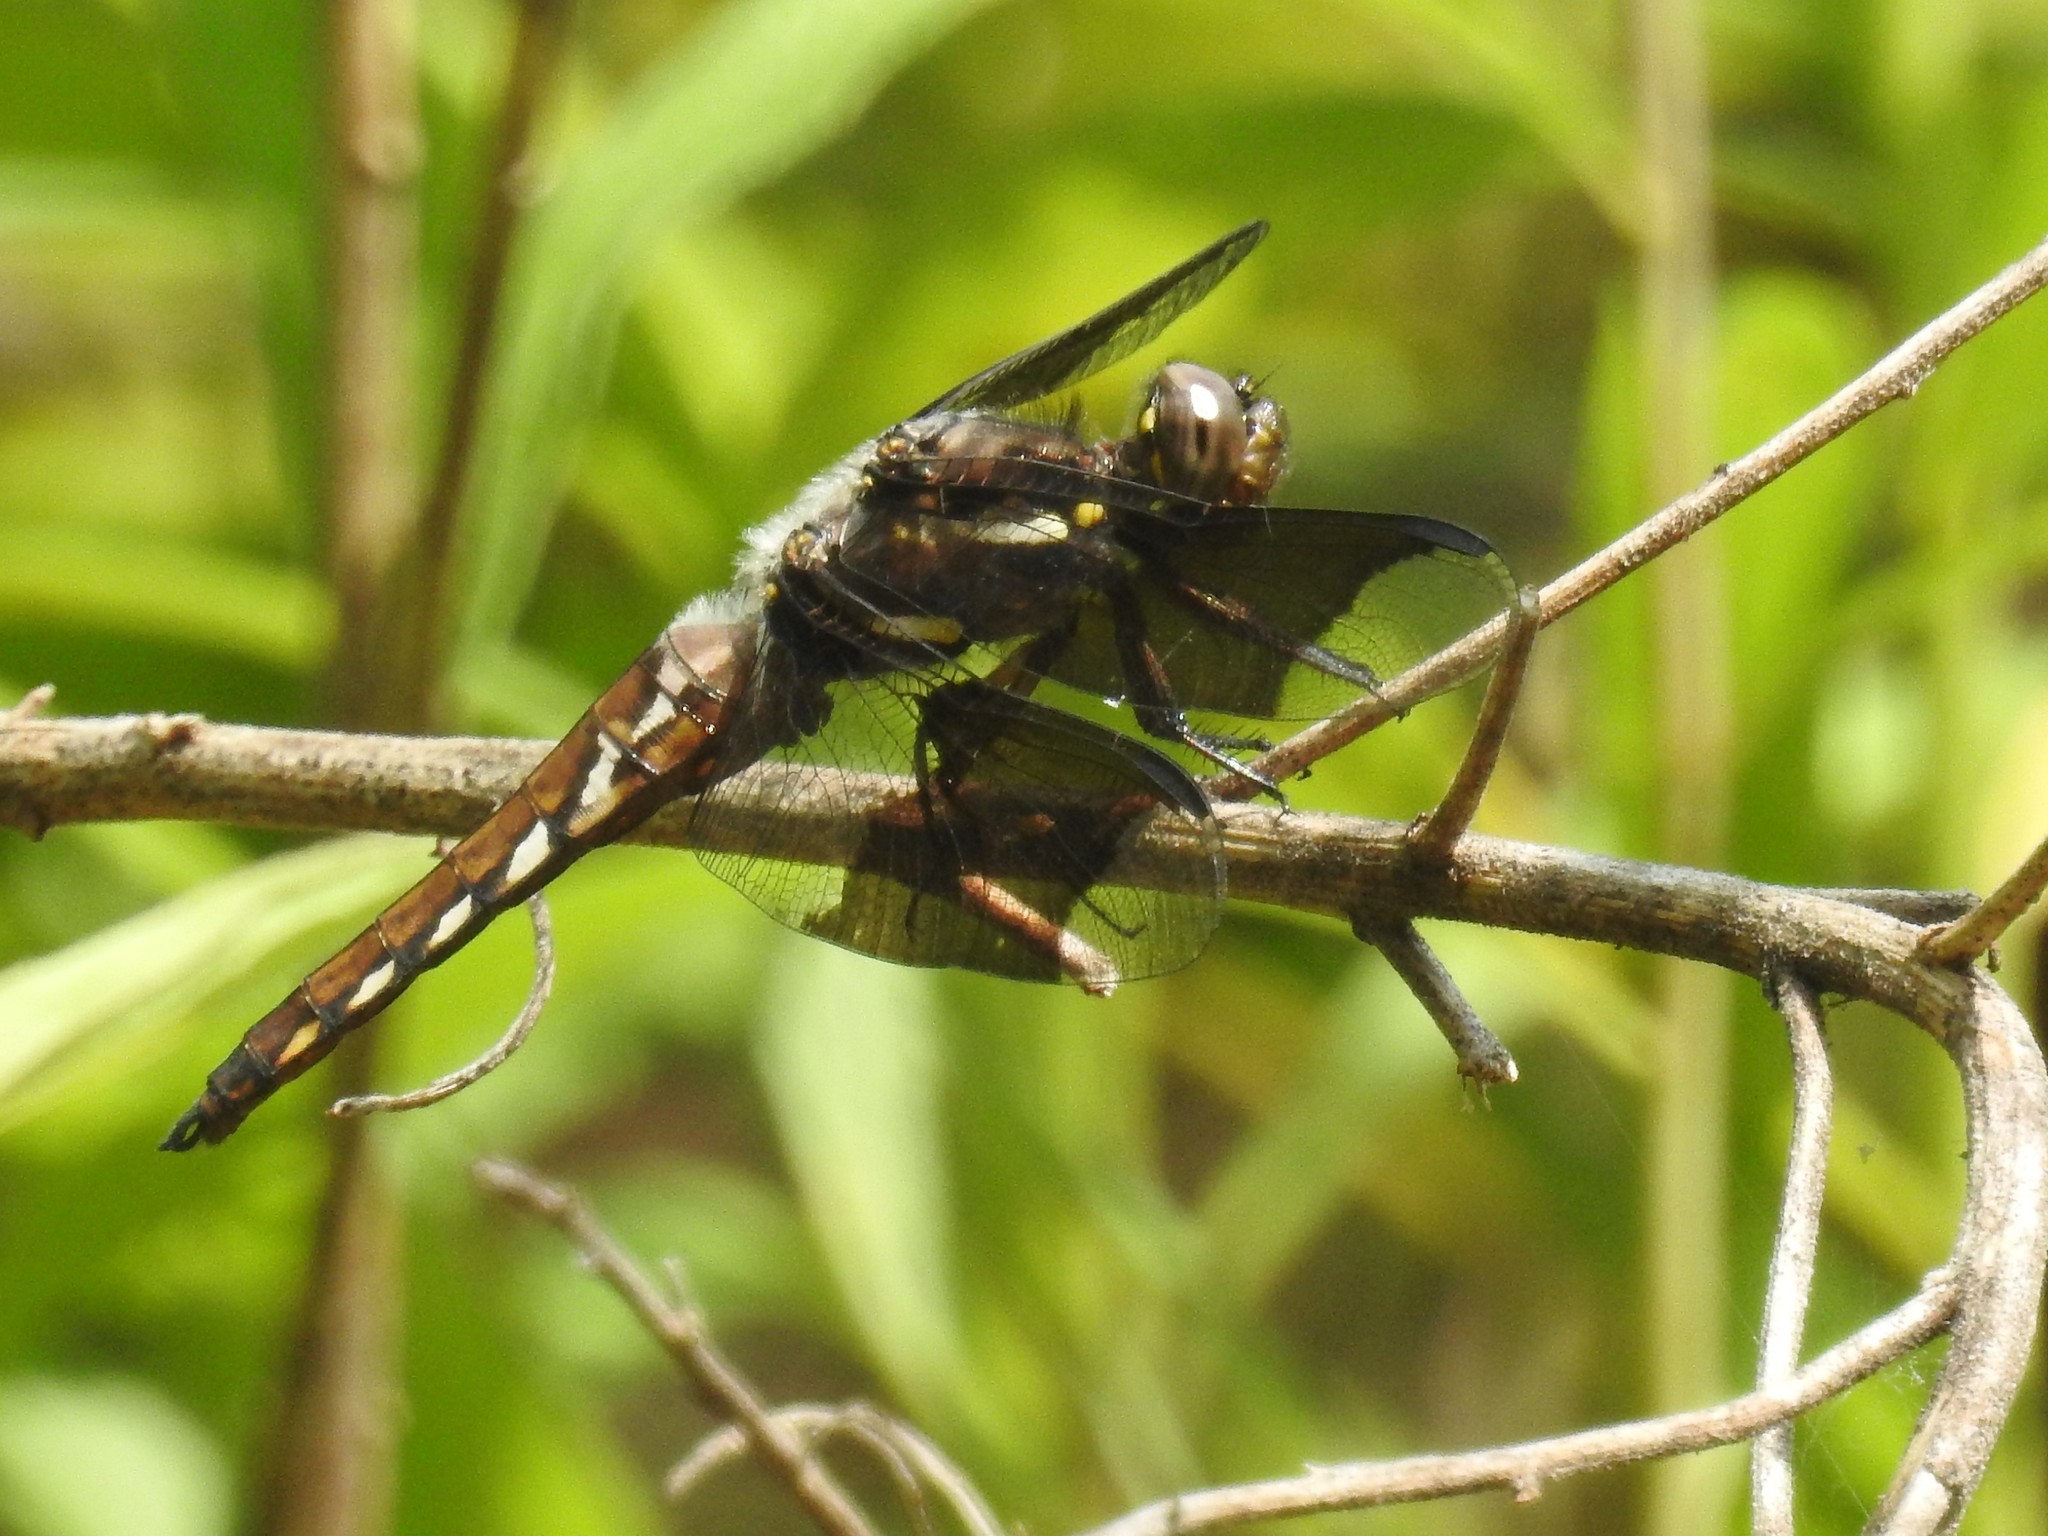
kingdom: Animalia
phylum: Arthropoda
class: Insecta
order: Odonata
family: Libellulidae
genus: Plathemis
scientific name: Plathemis lydia
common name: Common whitetail
